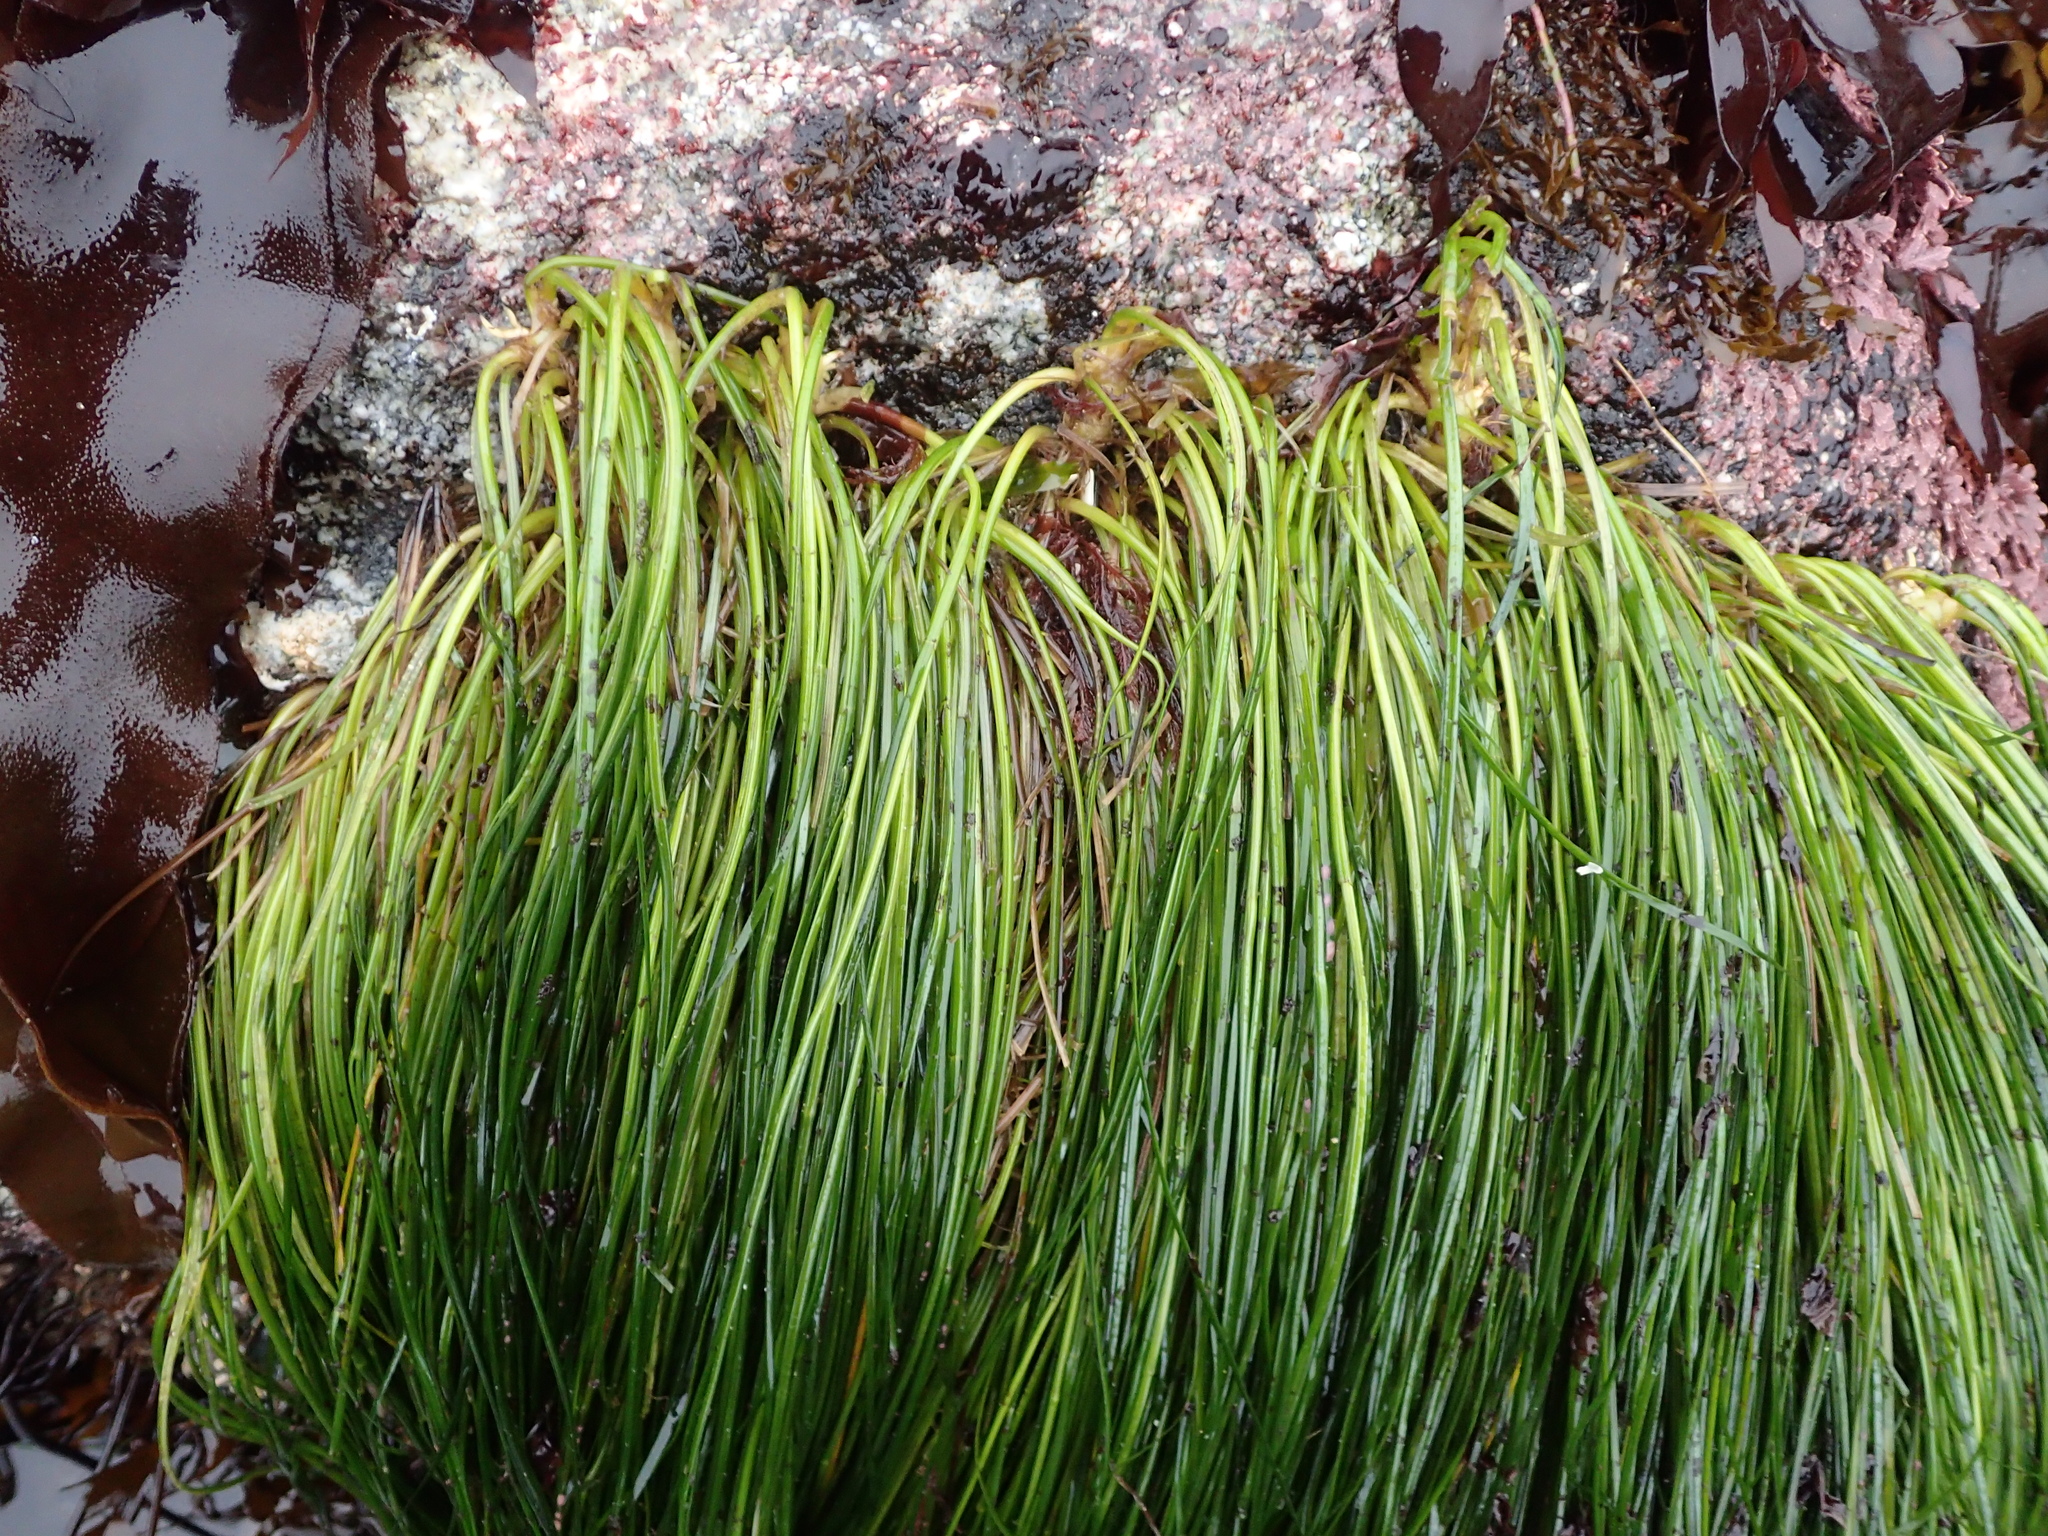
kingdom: Plantae
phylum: Tracheophyta
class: Liliopsida
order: Alismatales
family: Zosteraceae
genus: Phyllospadix
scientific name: Phyllospadix torreyi
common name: Surfgrass
